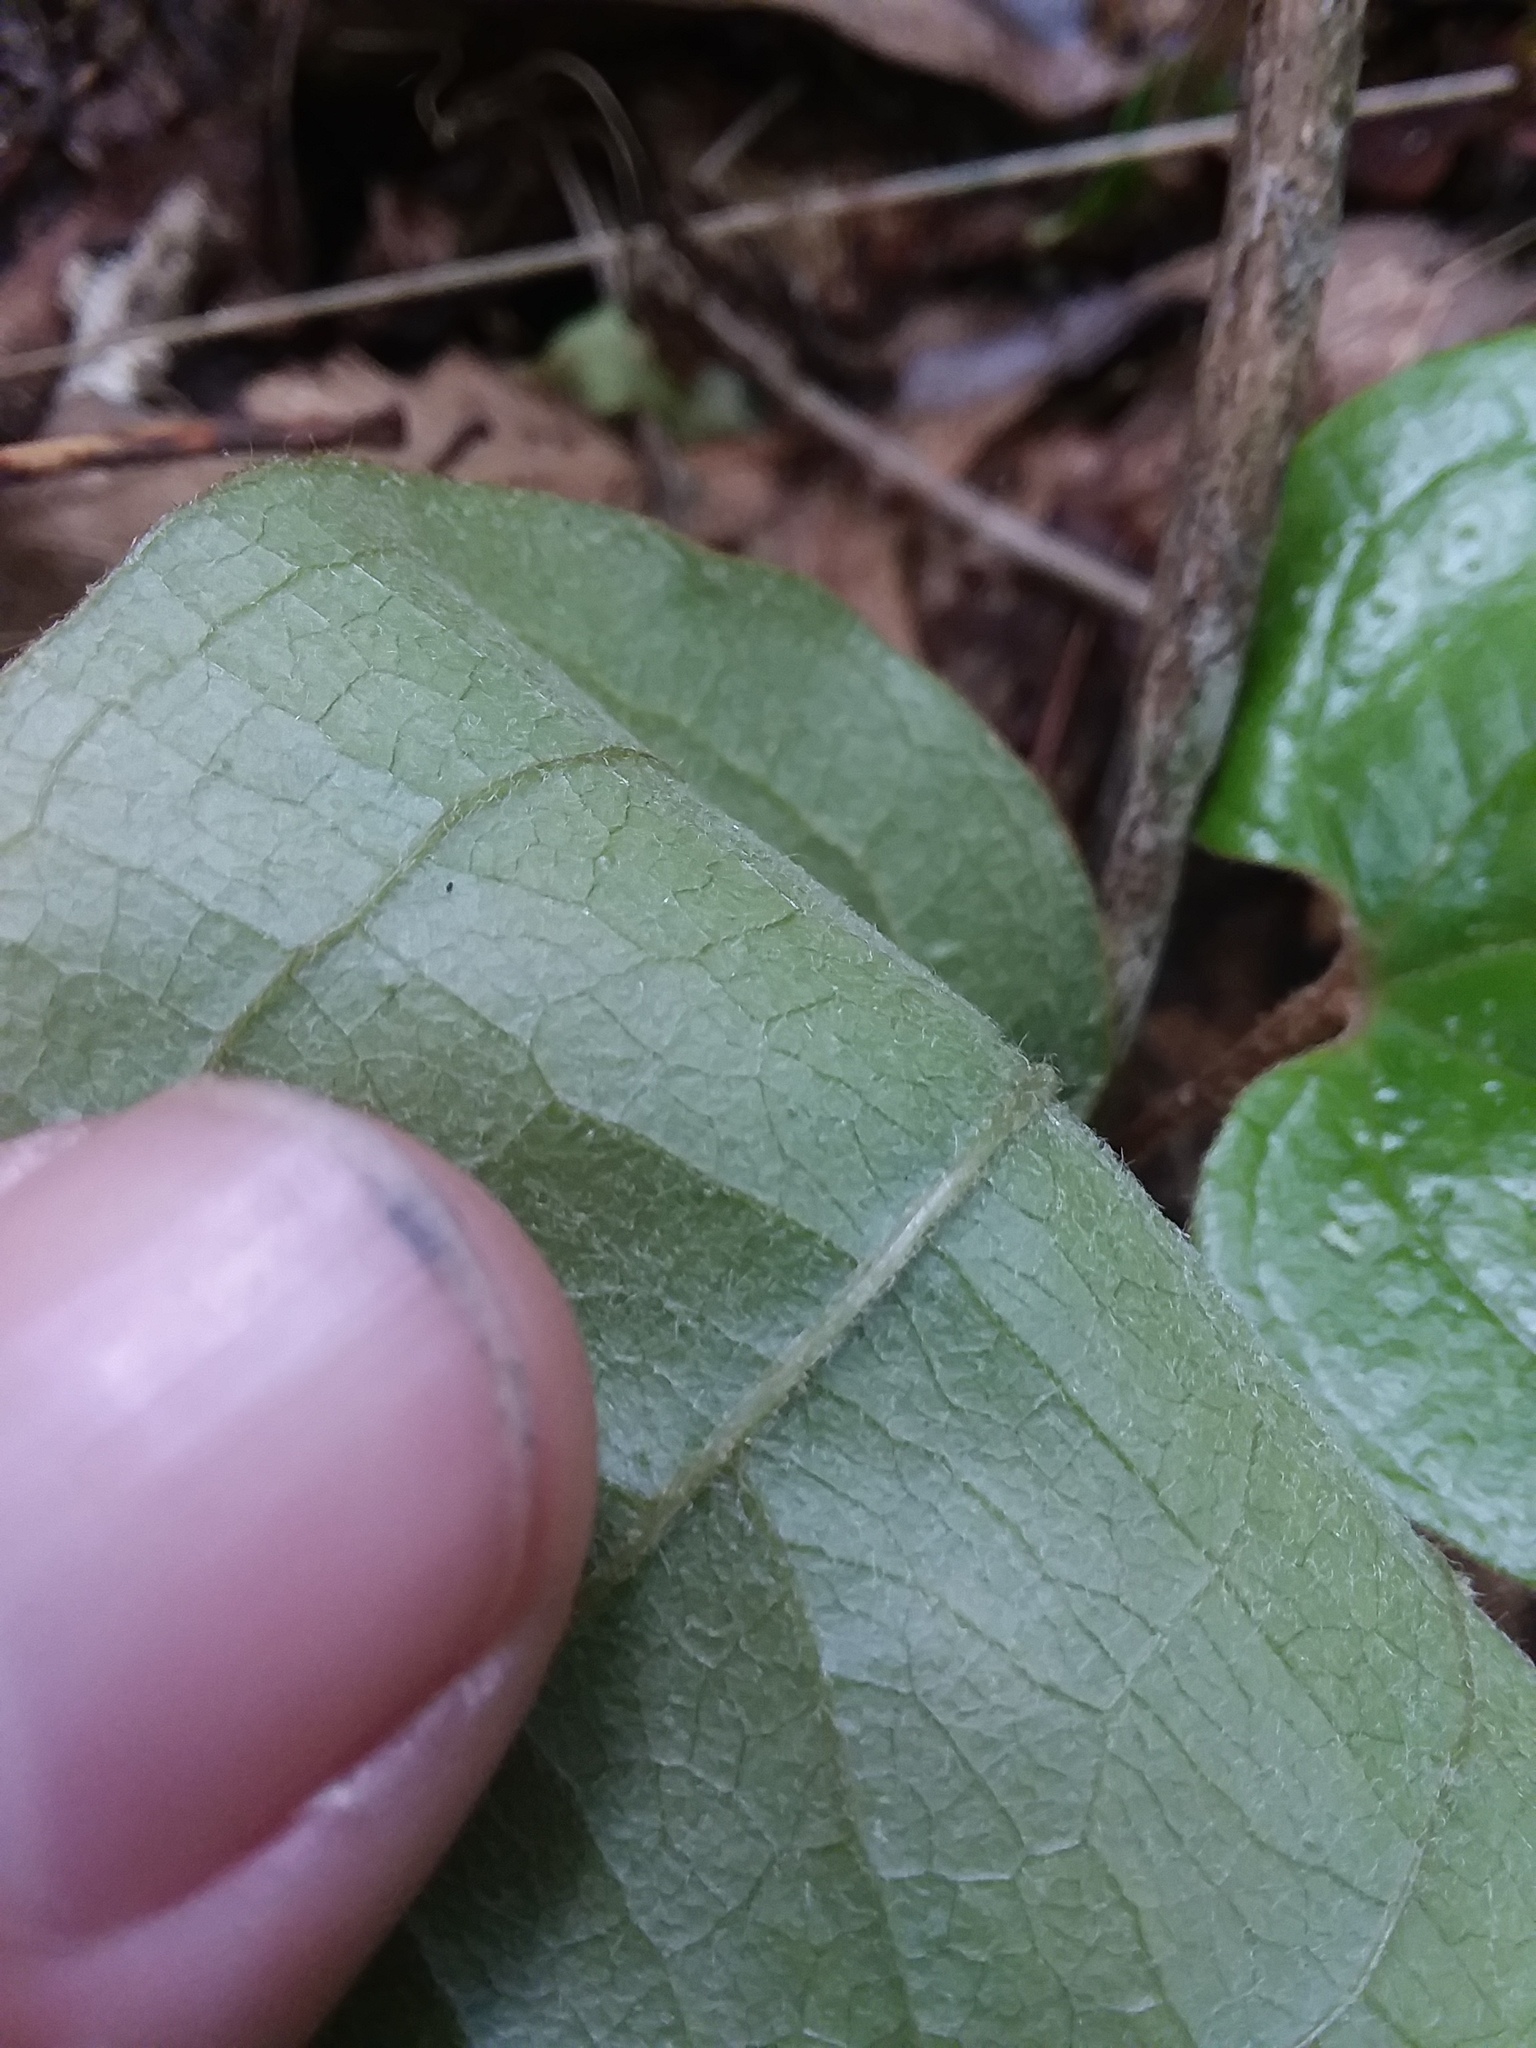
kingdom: Plantae
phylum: Tracheophyta
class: Liliopsida
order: Liliales
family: Smilacaceae
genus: Smilax
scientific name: Smilax pumila
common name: Sarsaparilla-vine
